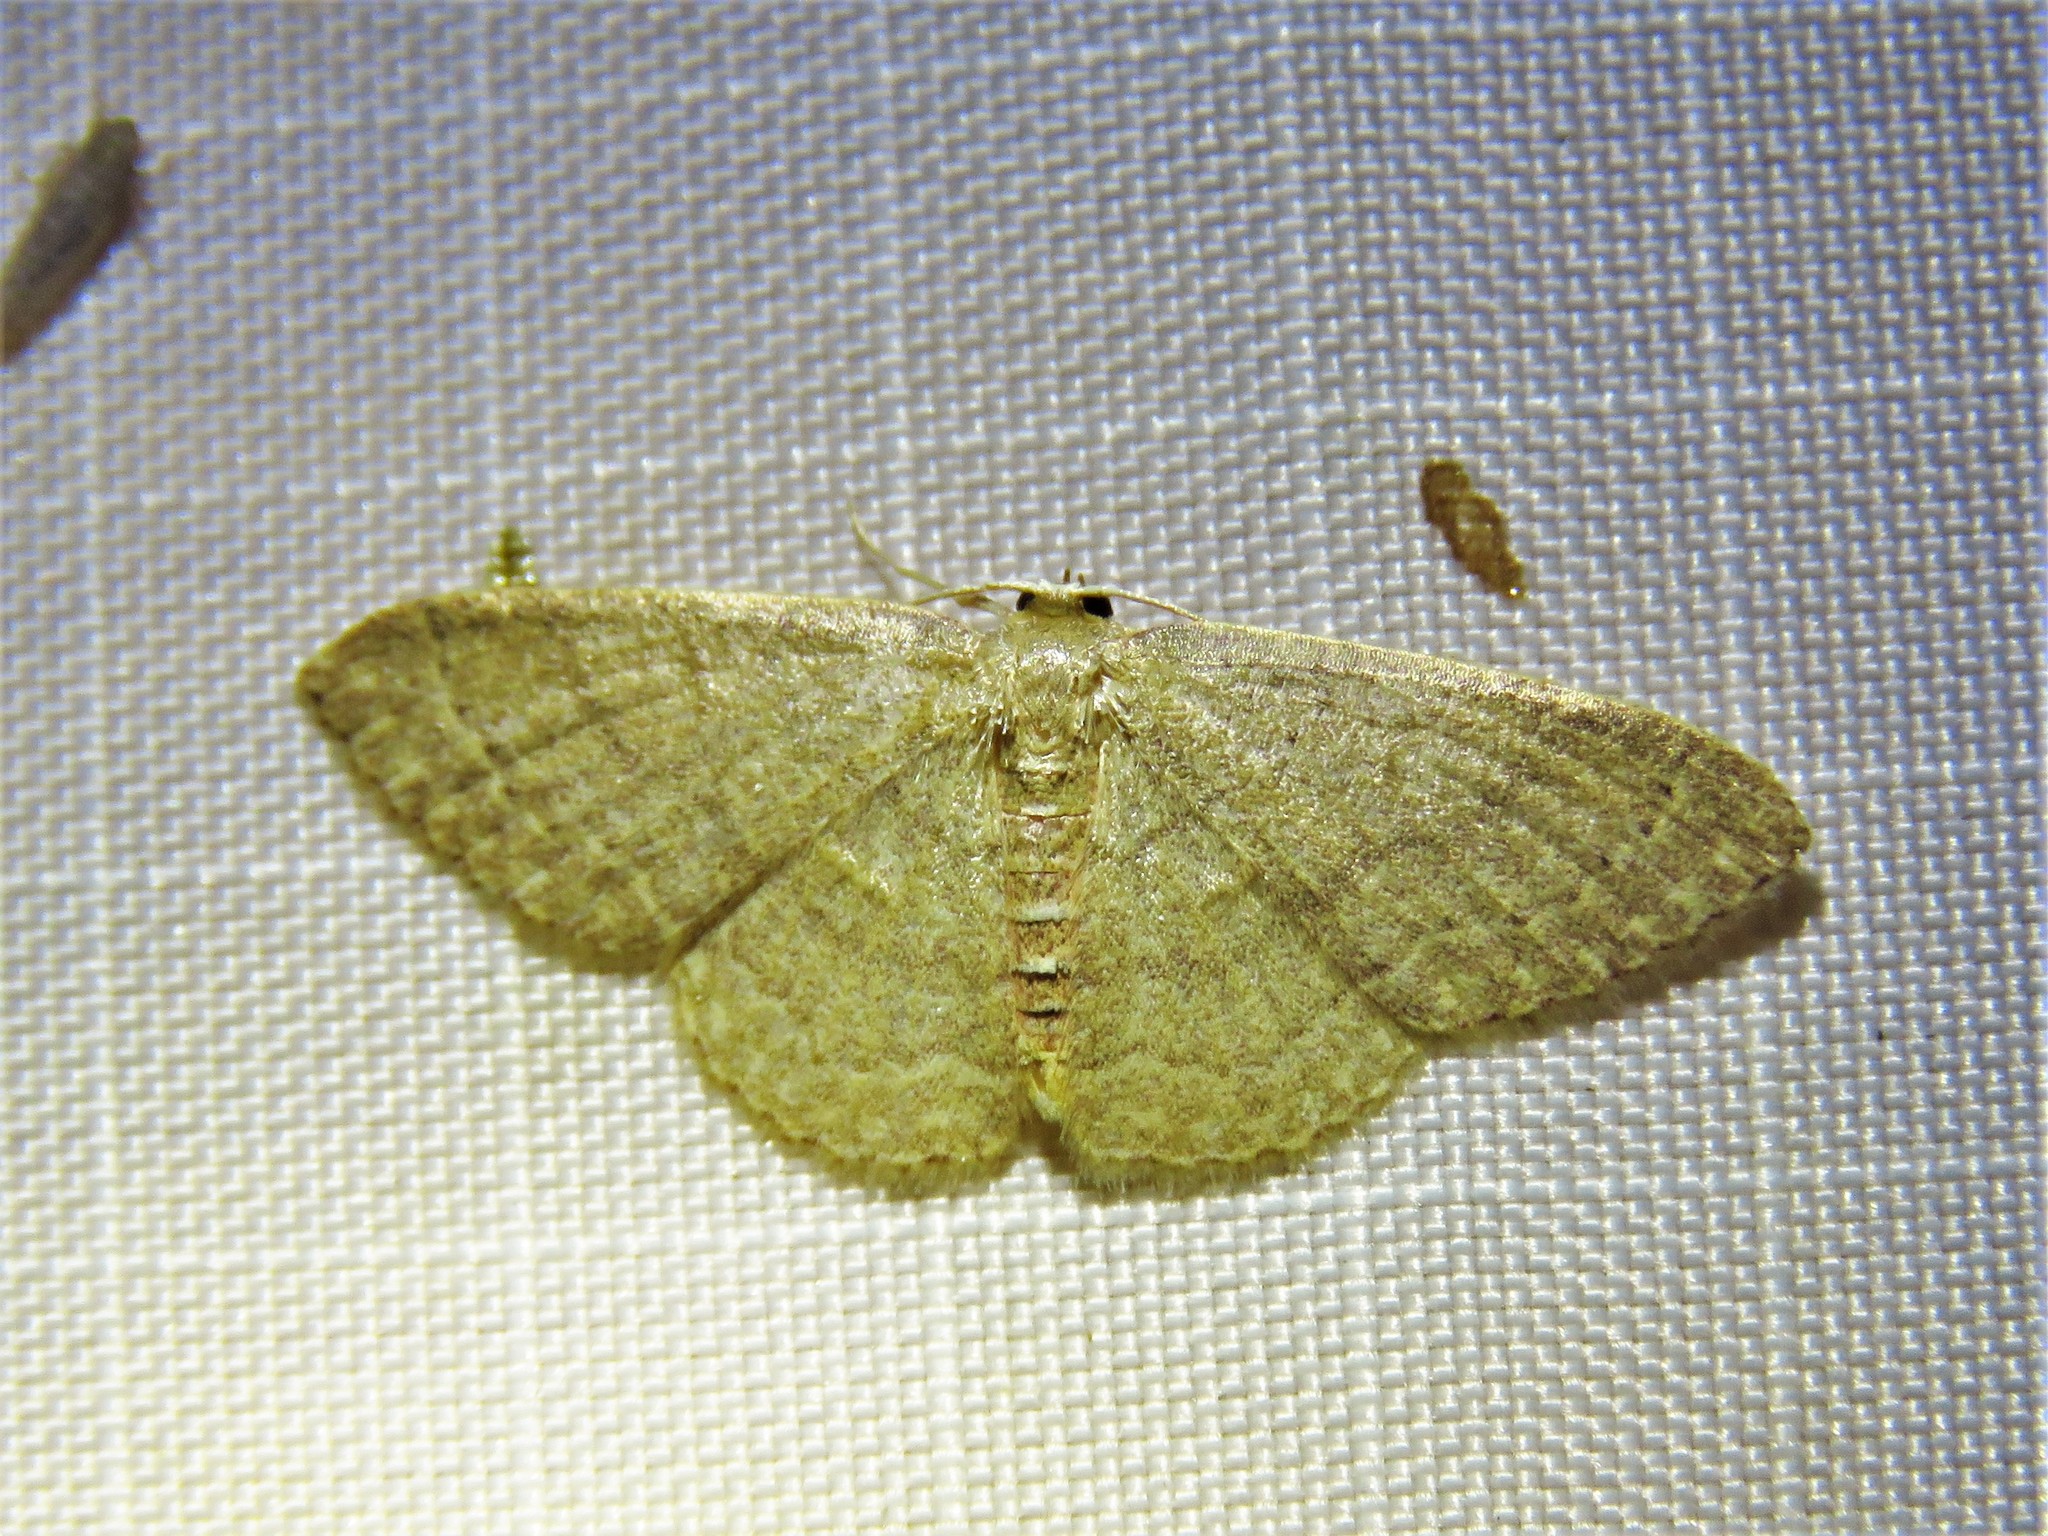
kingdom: Animalia
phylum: Arthropoda
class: Insecta
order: Lepidoptera
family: Geometridae
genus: Pleuroprucha
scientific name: Pleuroprucha insulsaria
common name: Common tan wave
